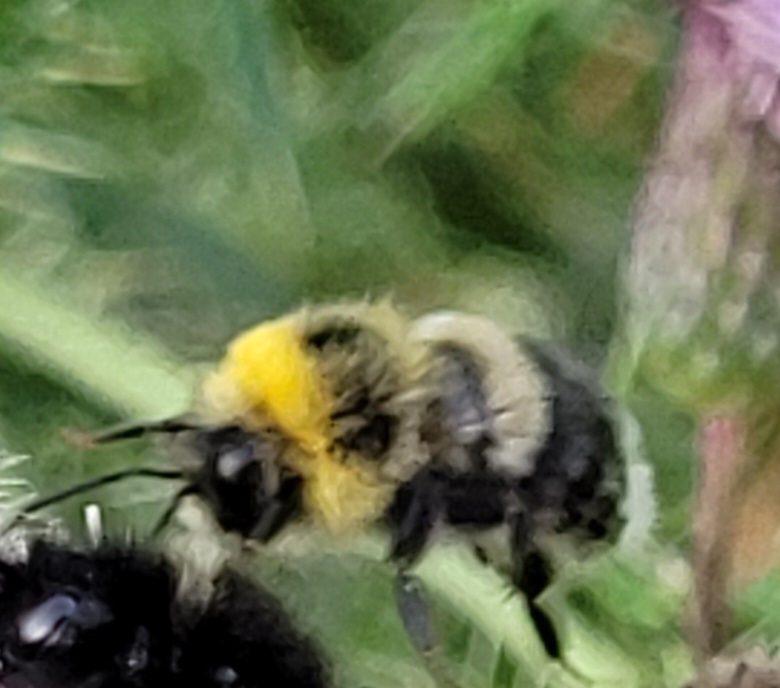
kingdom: Animalia
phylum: Arthropoda
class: Insecta
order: Hymenoptera
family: Apidae
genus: Bombus
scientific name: Bombus lucorum
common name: White-tailed bumblebee
